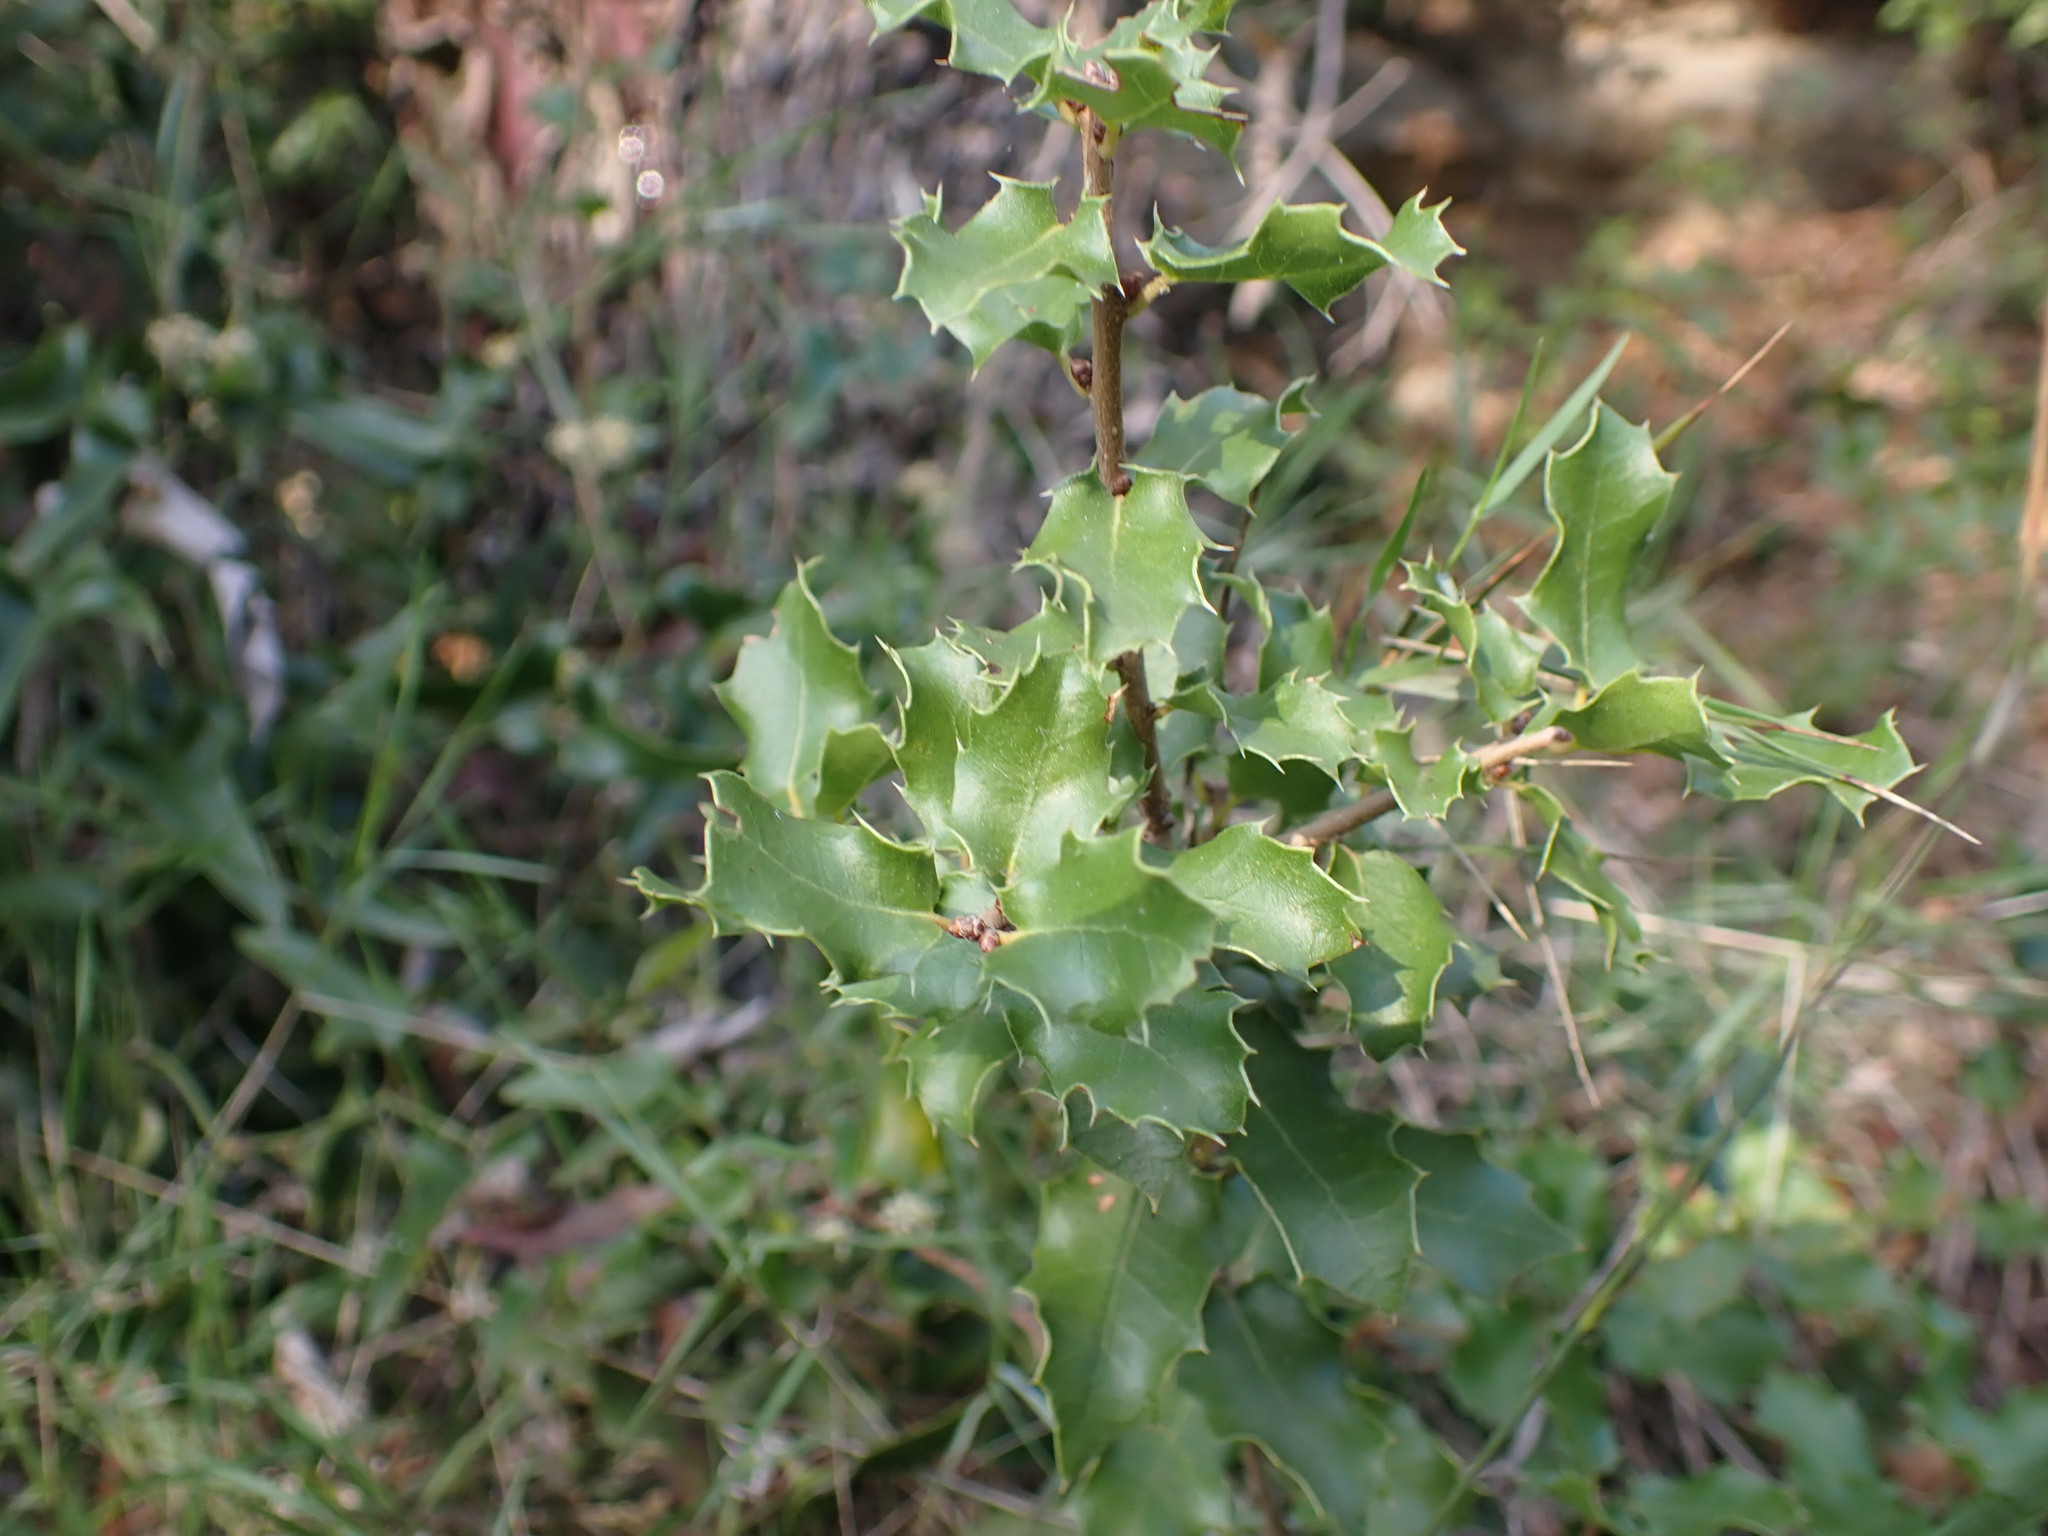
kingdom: Plantae
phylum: Tracheophyta
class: Magnoliopsida
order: Fagales
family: Fagaceae
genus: Quercus
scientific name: Quercus coccifera
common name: Kermes oak
